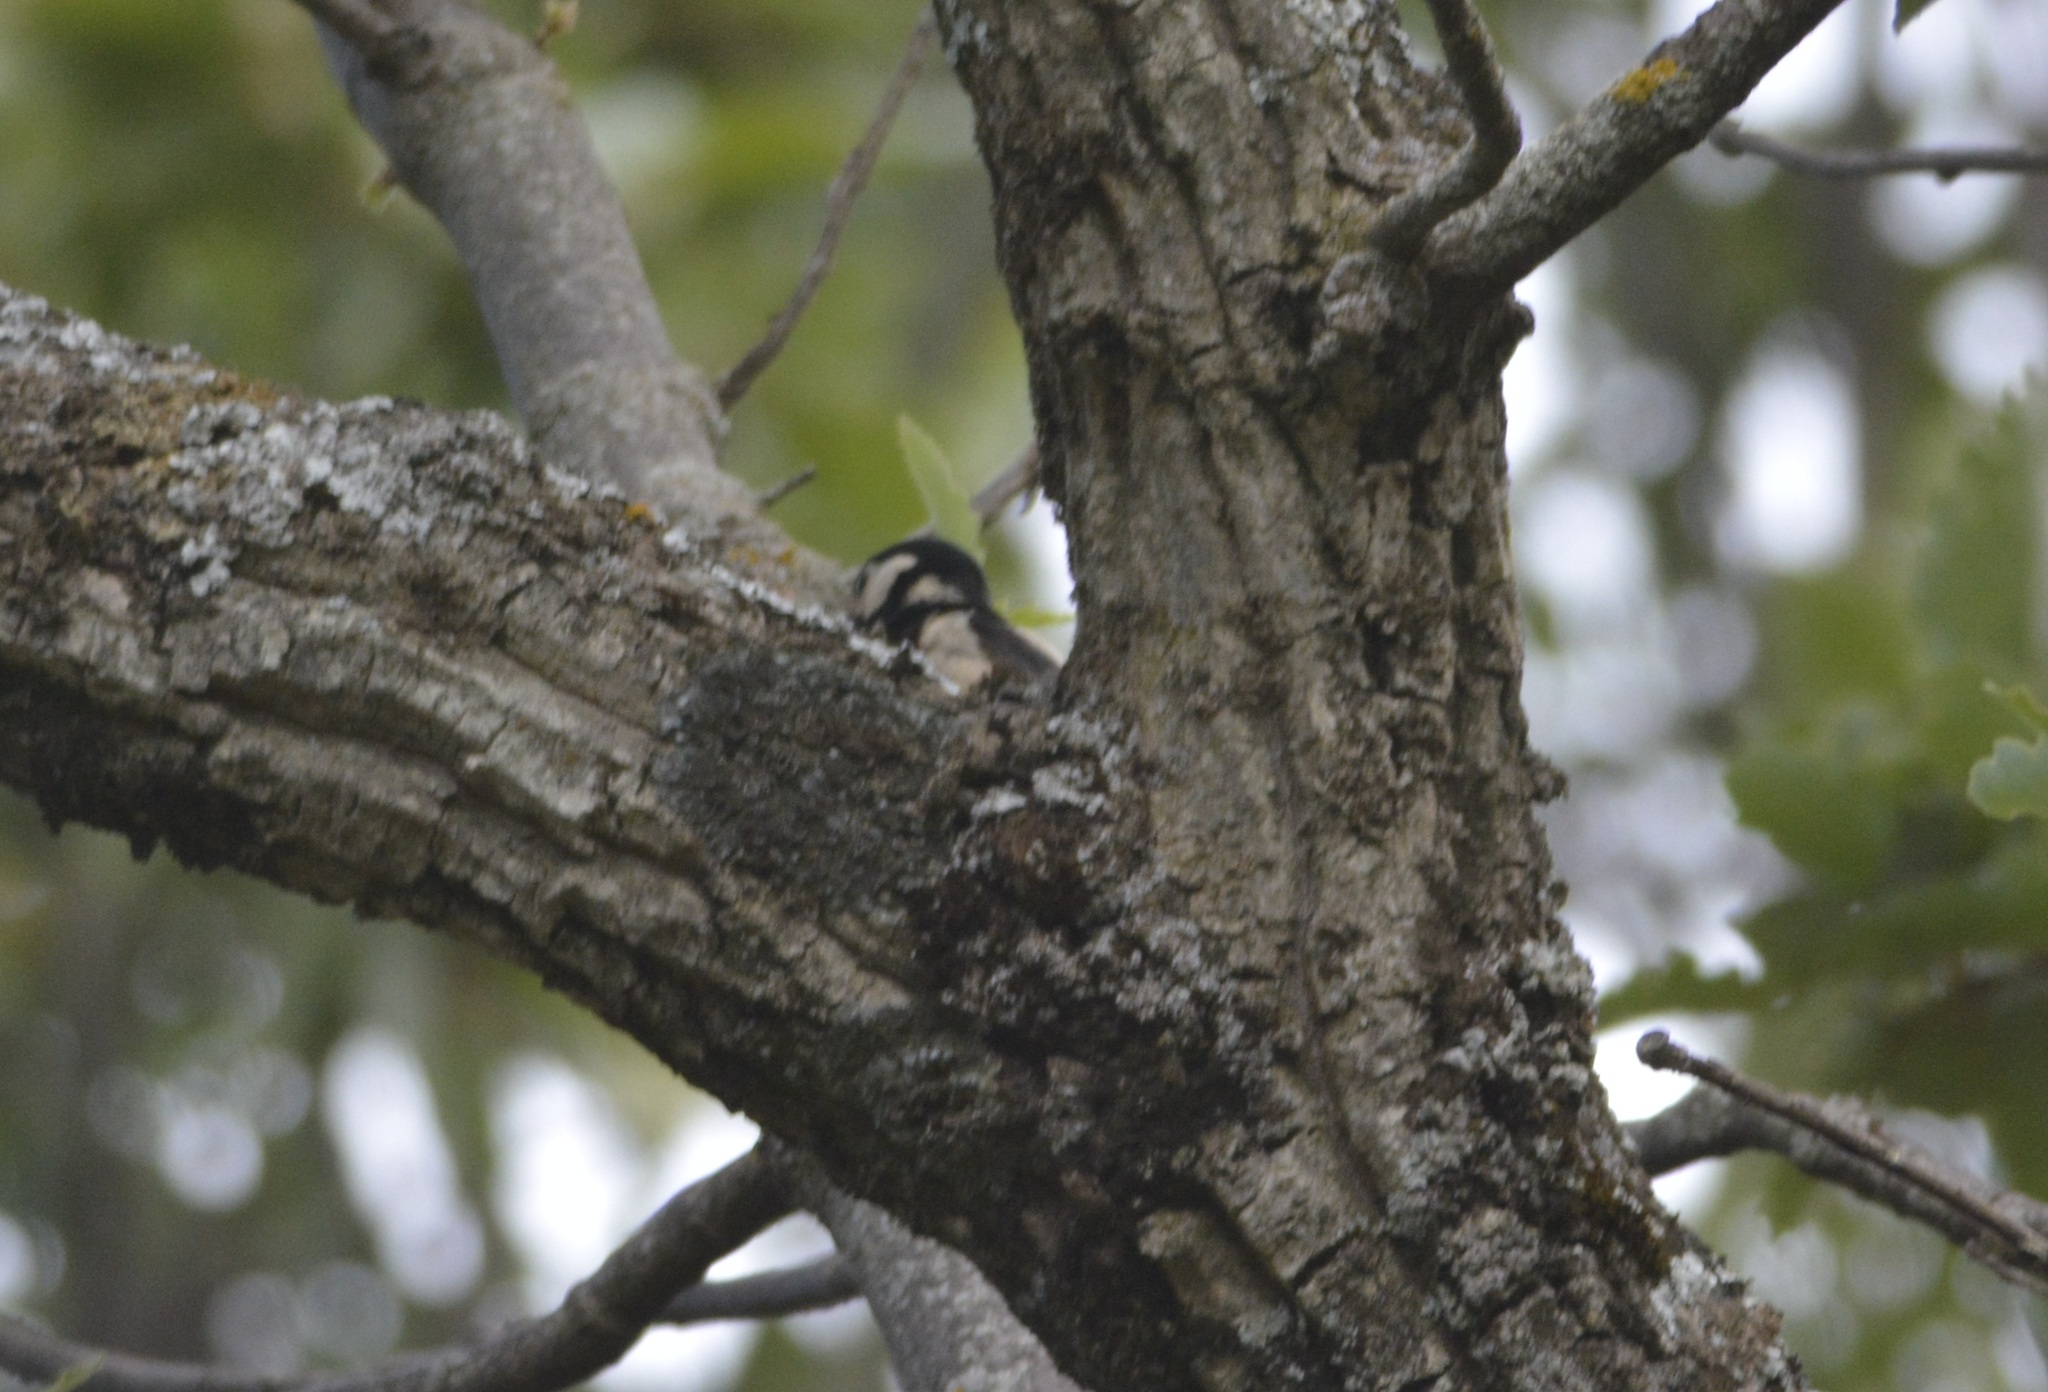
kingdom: Animalia
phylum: Chordata
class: Aves
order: Piciformes
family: Picidae
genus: Dendrocopos
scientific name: Dendrocopos major
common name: Great spotted woodpecker
